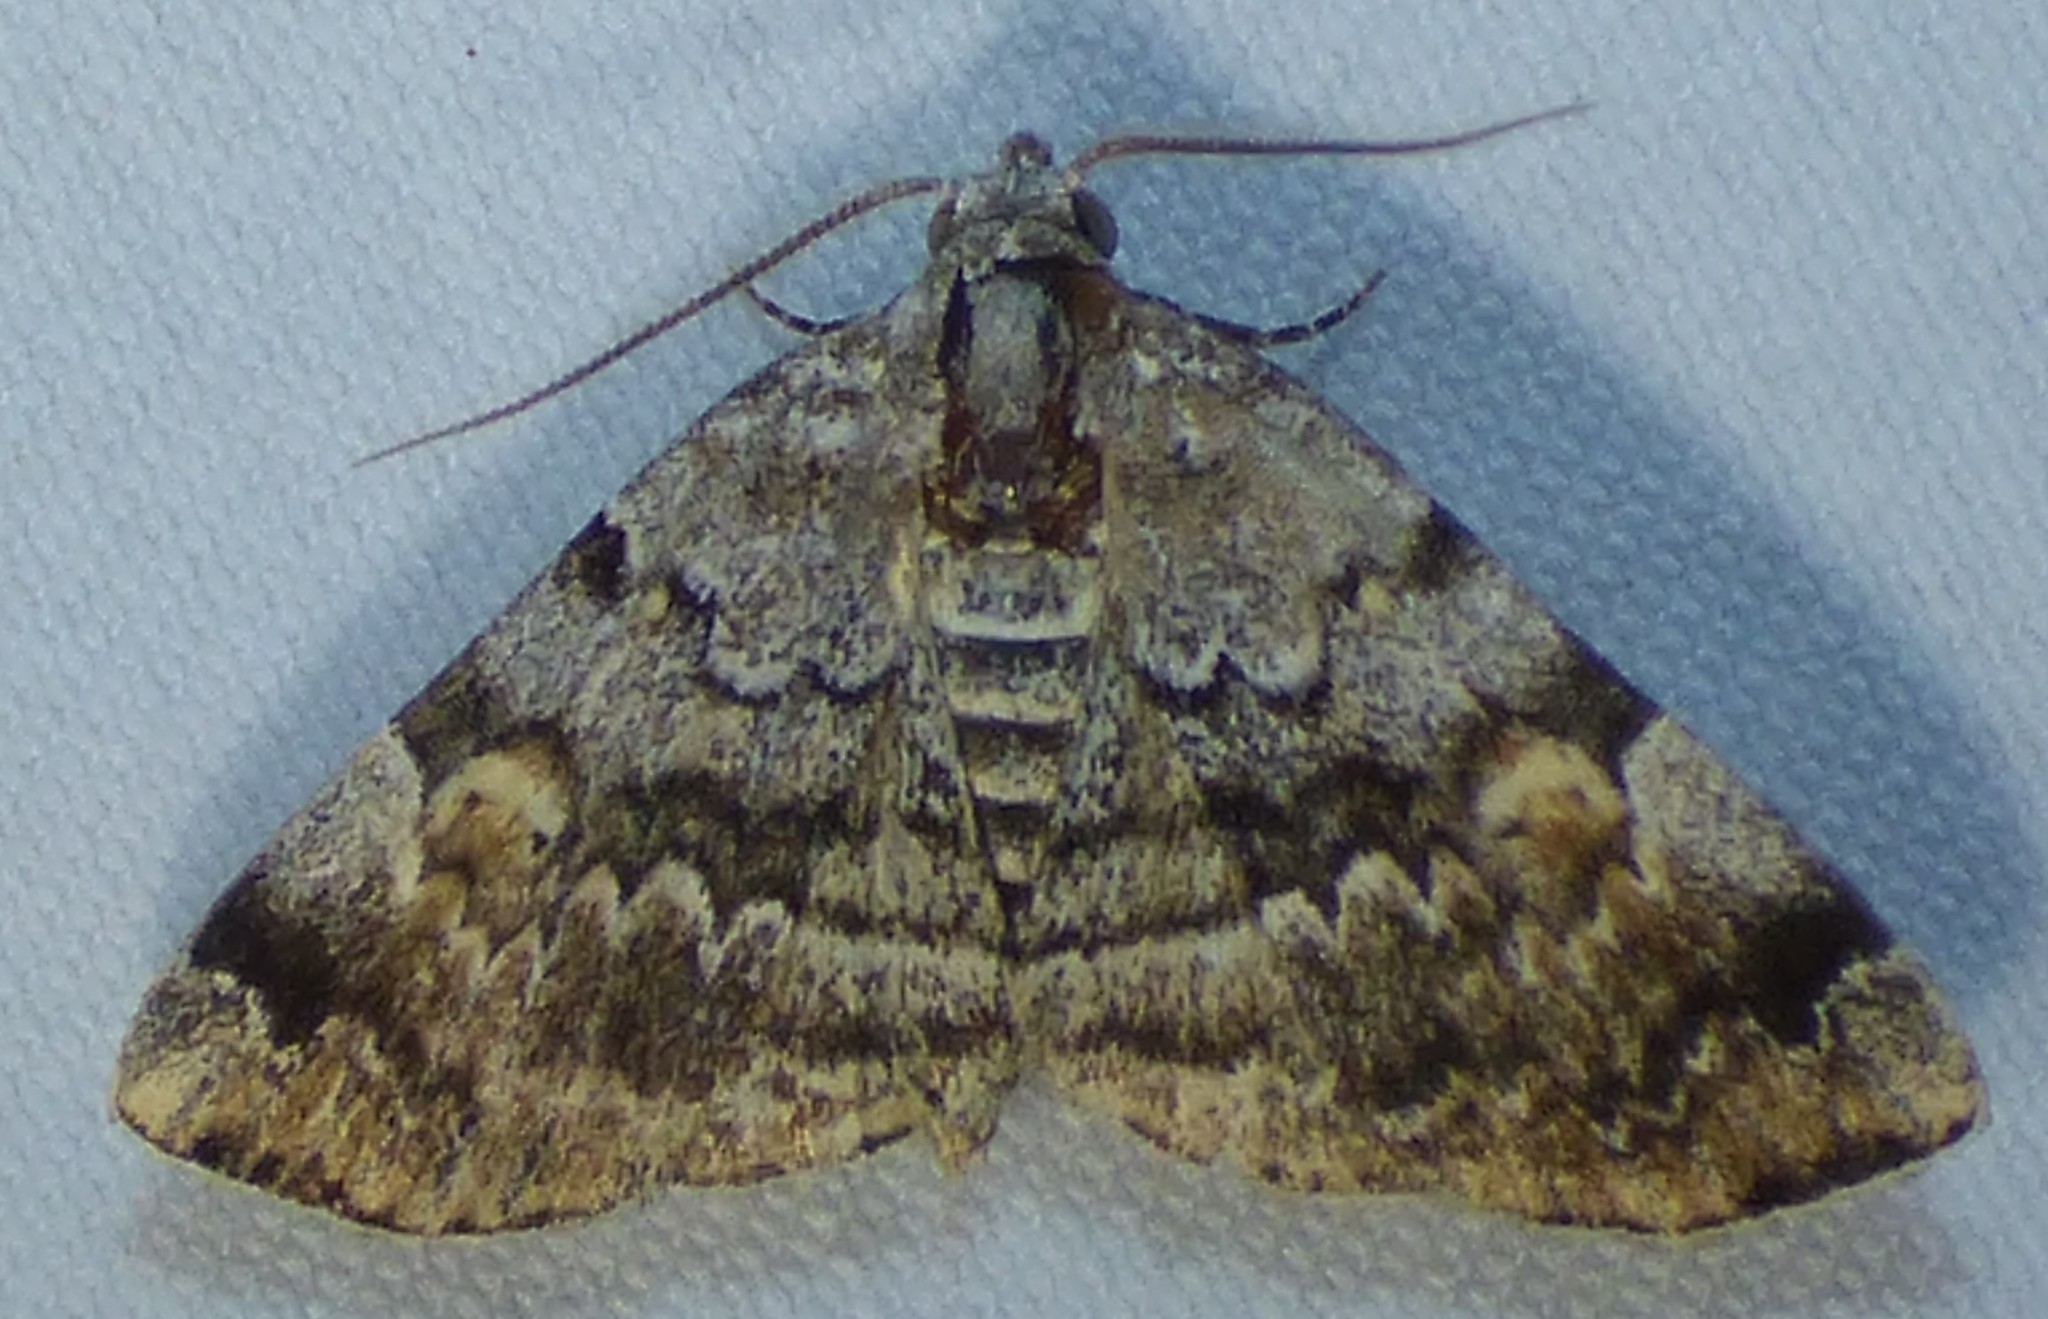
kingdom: Animalia
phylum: Arthropoda
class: Insecta
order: Lepidoptera
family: Erebidae
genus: Idia
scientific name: Idia americalis
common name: American idia moth
